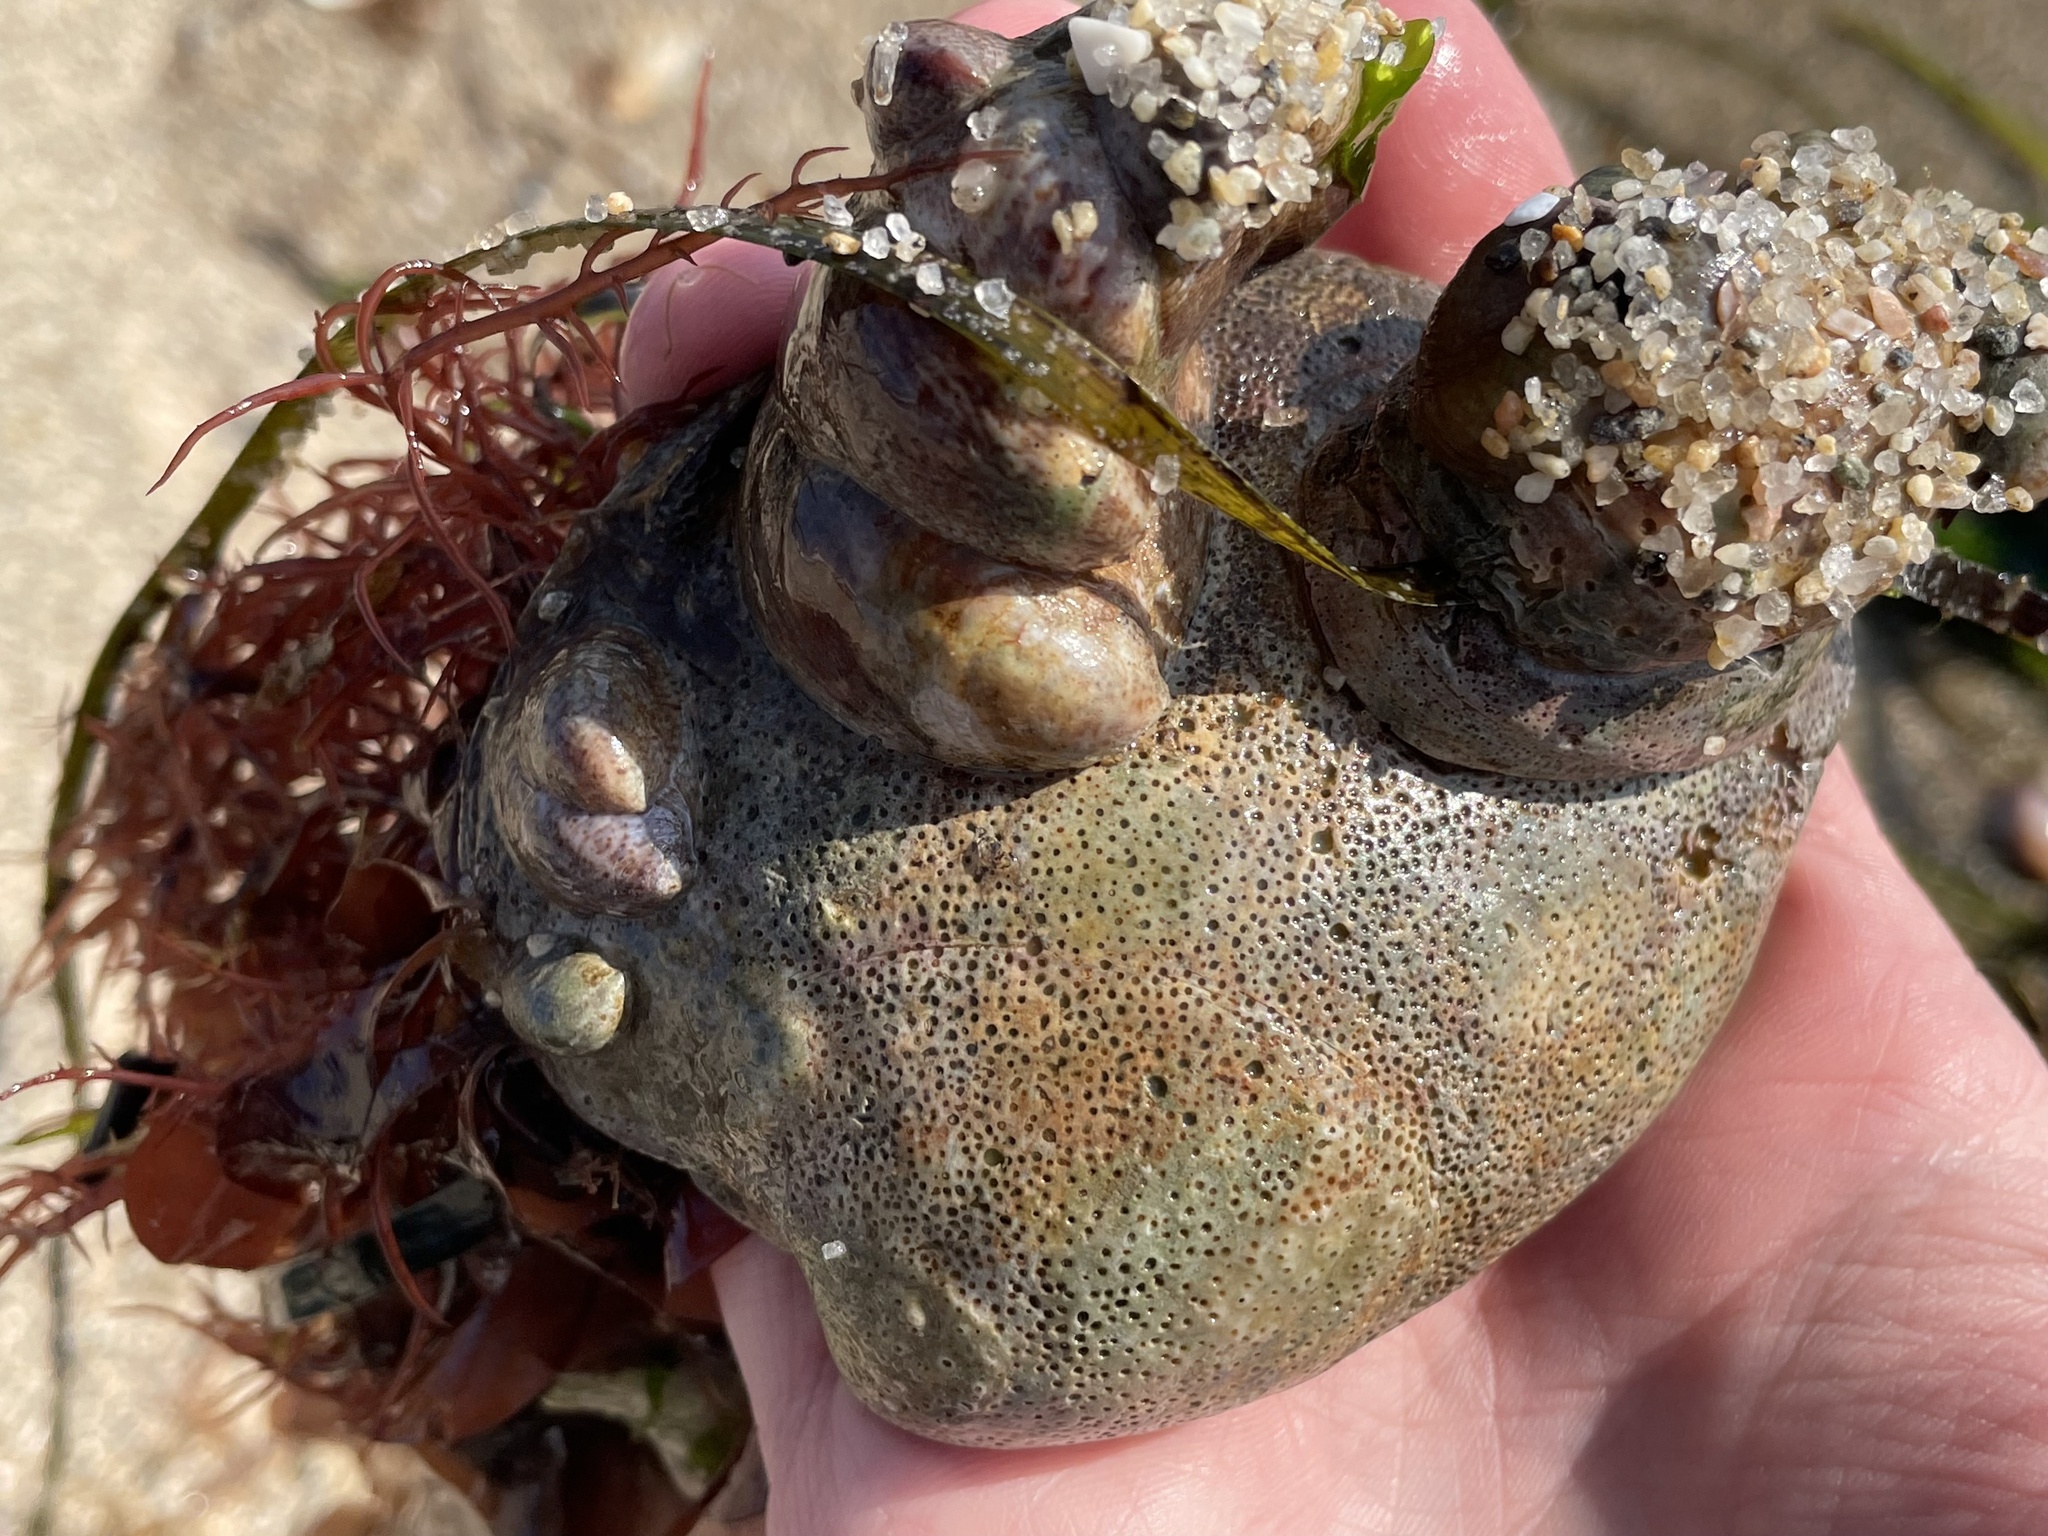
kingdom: Animalia
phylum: Mollusca
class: Bivalvia
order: Venerida
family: Veneridae
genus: Mercenaria
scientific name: Mercenaria mercenaria
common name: American hard-shelled clam
